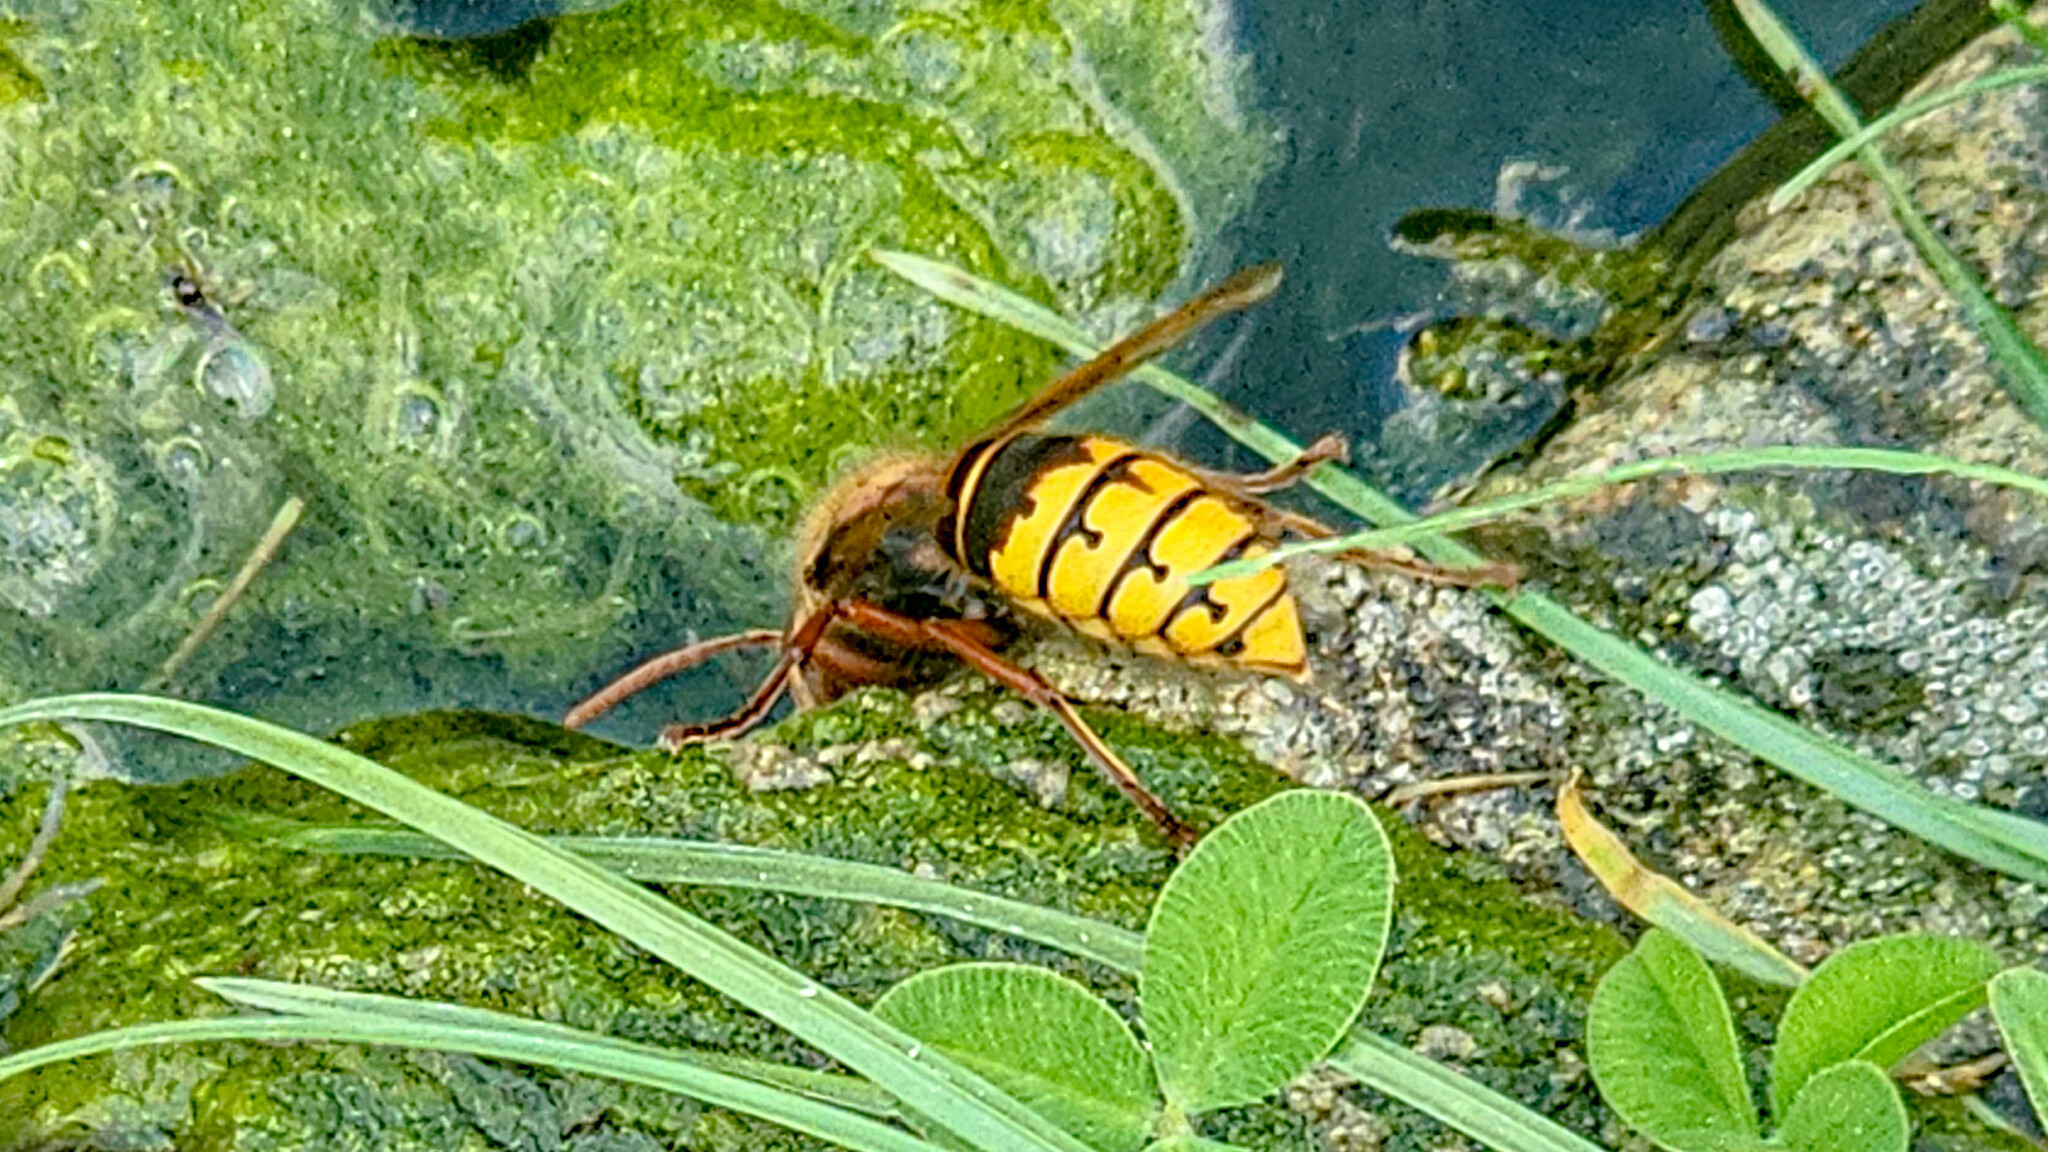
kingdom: Animalia
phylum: Arthropoda
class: Insecta
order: Hymenoptera
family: Vespidae
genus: Vespa
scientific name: Vespa crabro
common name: Hornet
